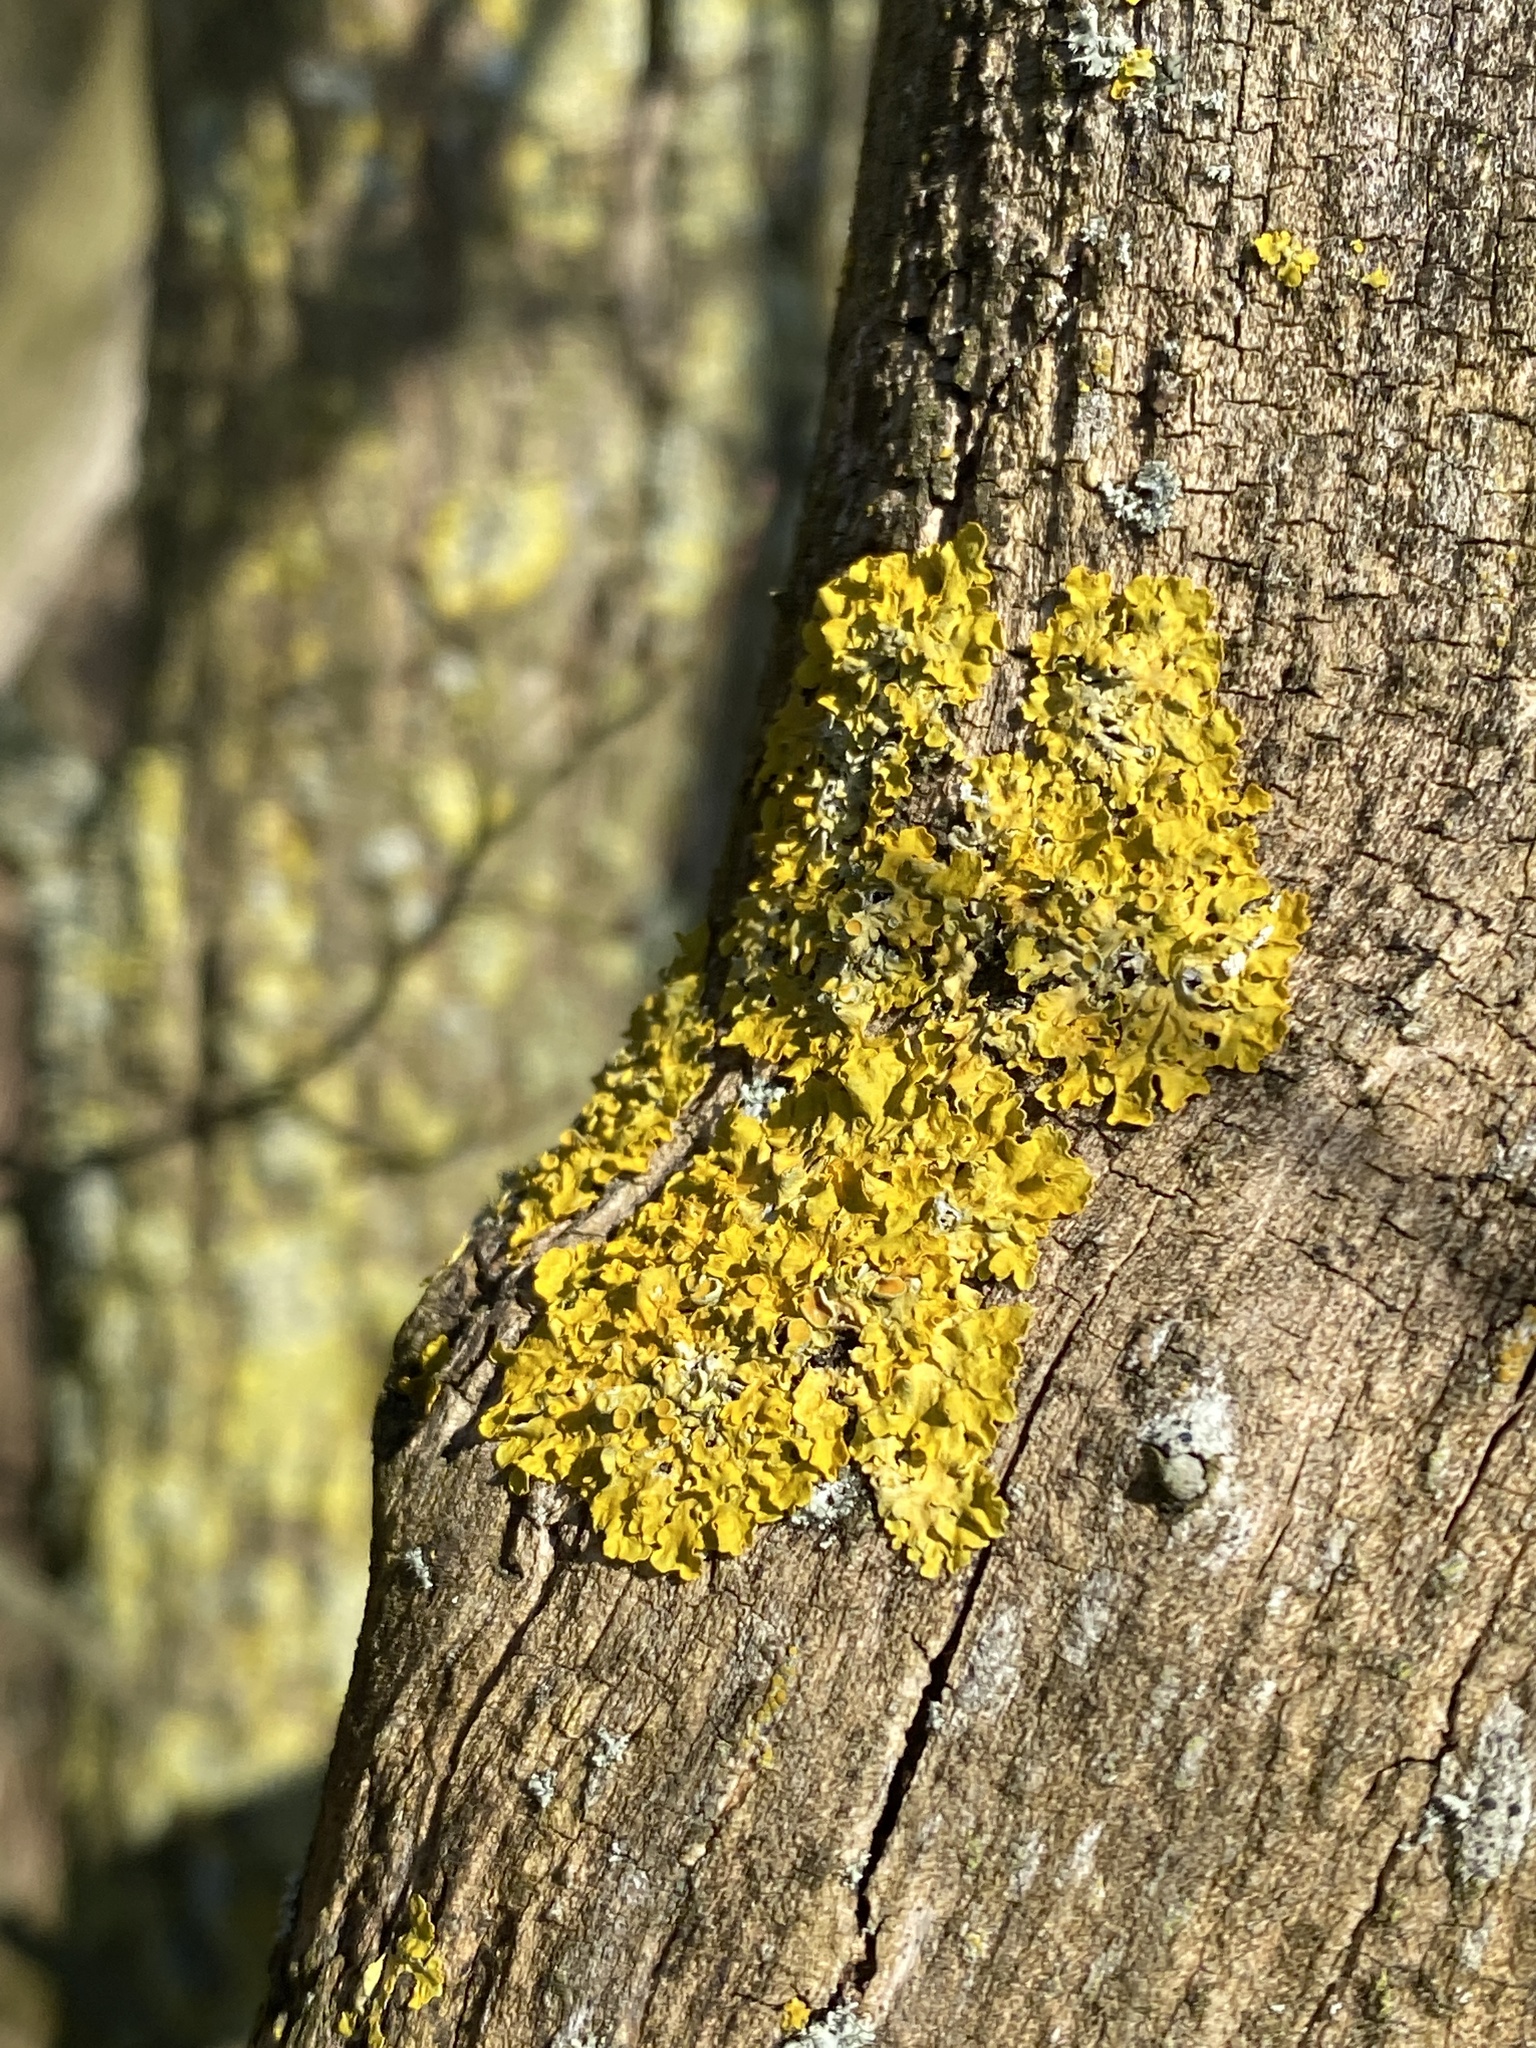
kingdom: Fungi
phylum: Ascomycota
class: Lecanoromycetes
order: Teloschistales
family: Teloschistaceae
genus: Xanthoria
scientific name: Xanthoria parietina
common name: Common orange lichen
